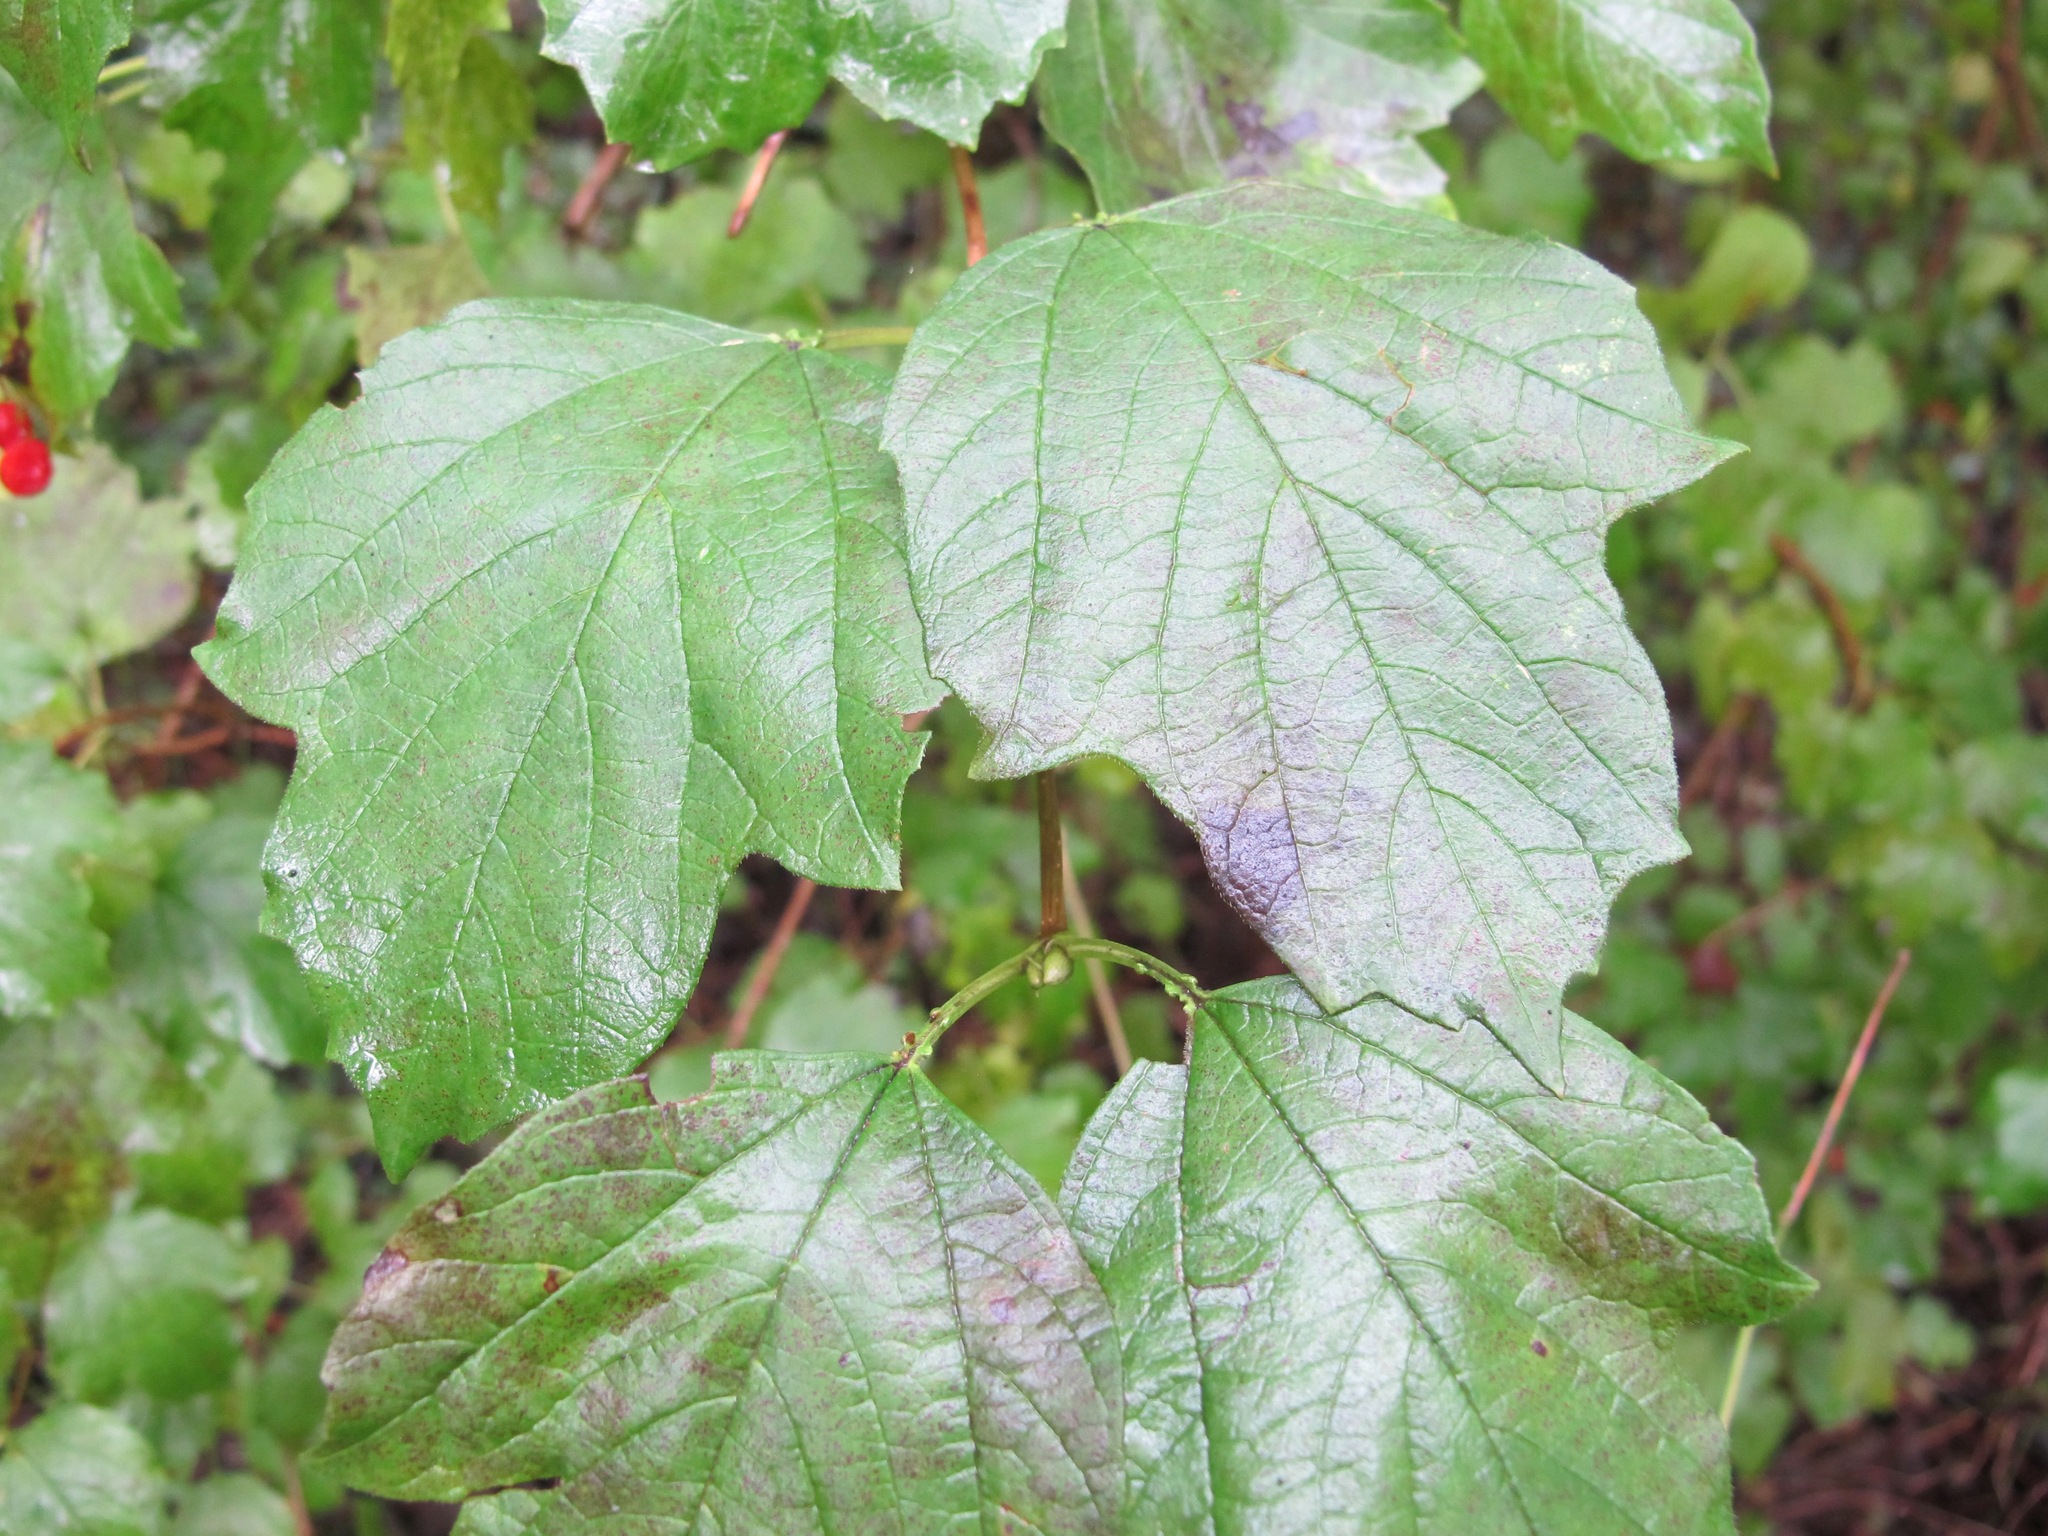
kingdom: Plantae
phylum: Tracheophyta
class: Magnoliopsida
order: Dipsacales
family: Viburnaceae
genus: Viburnum
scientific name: Viburnum opulus
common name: Guelder-rose
